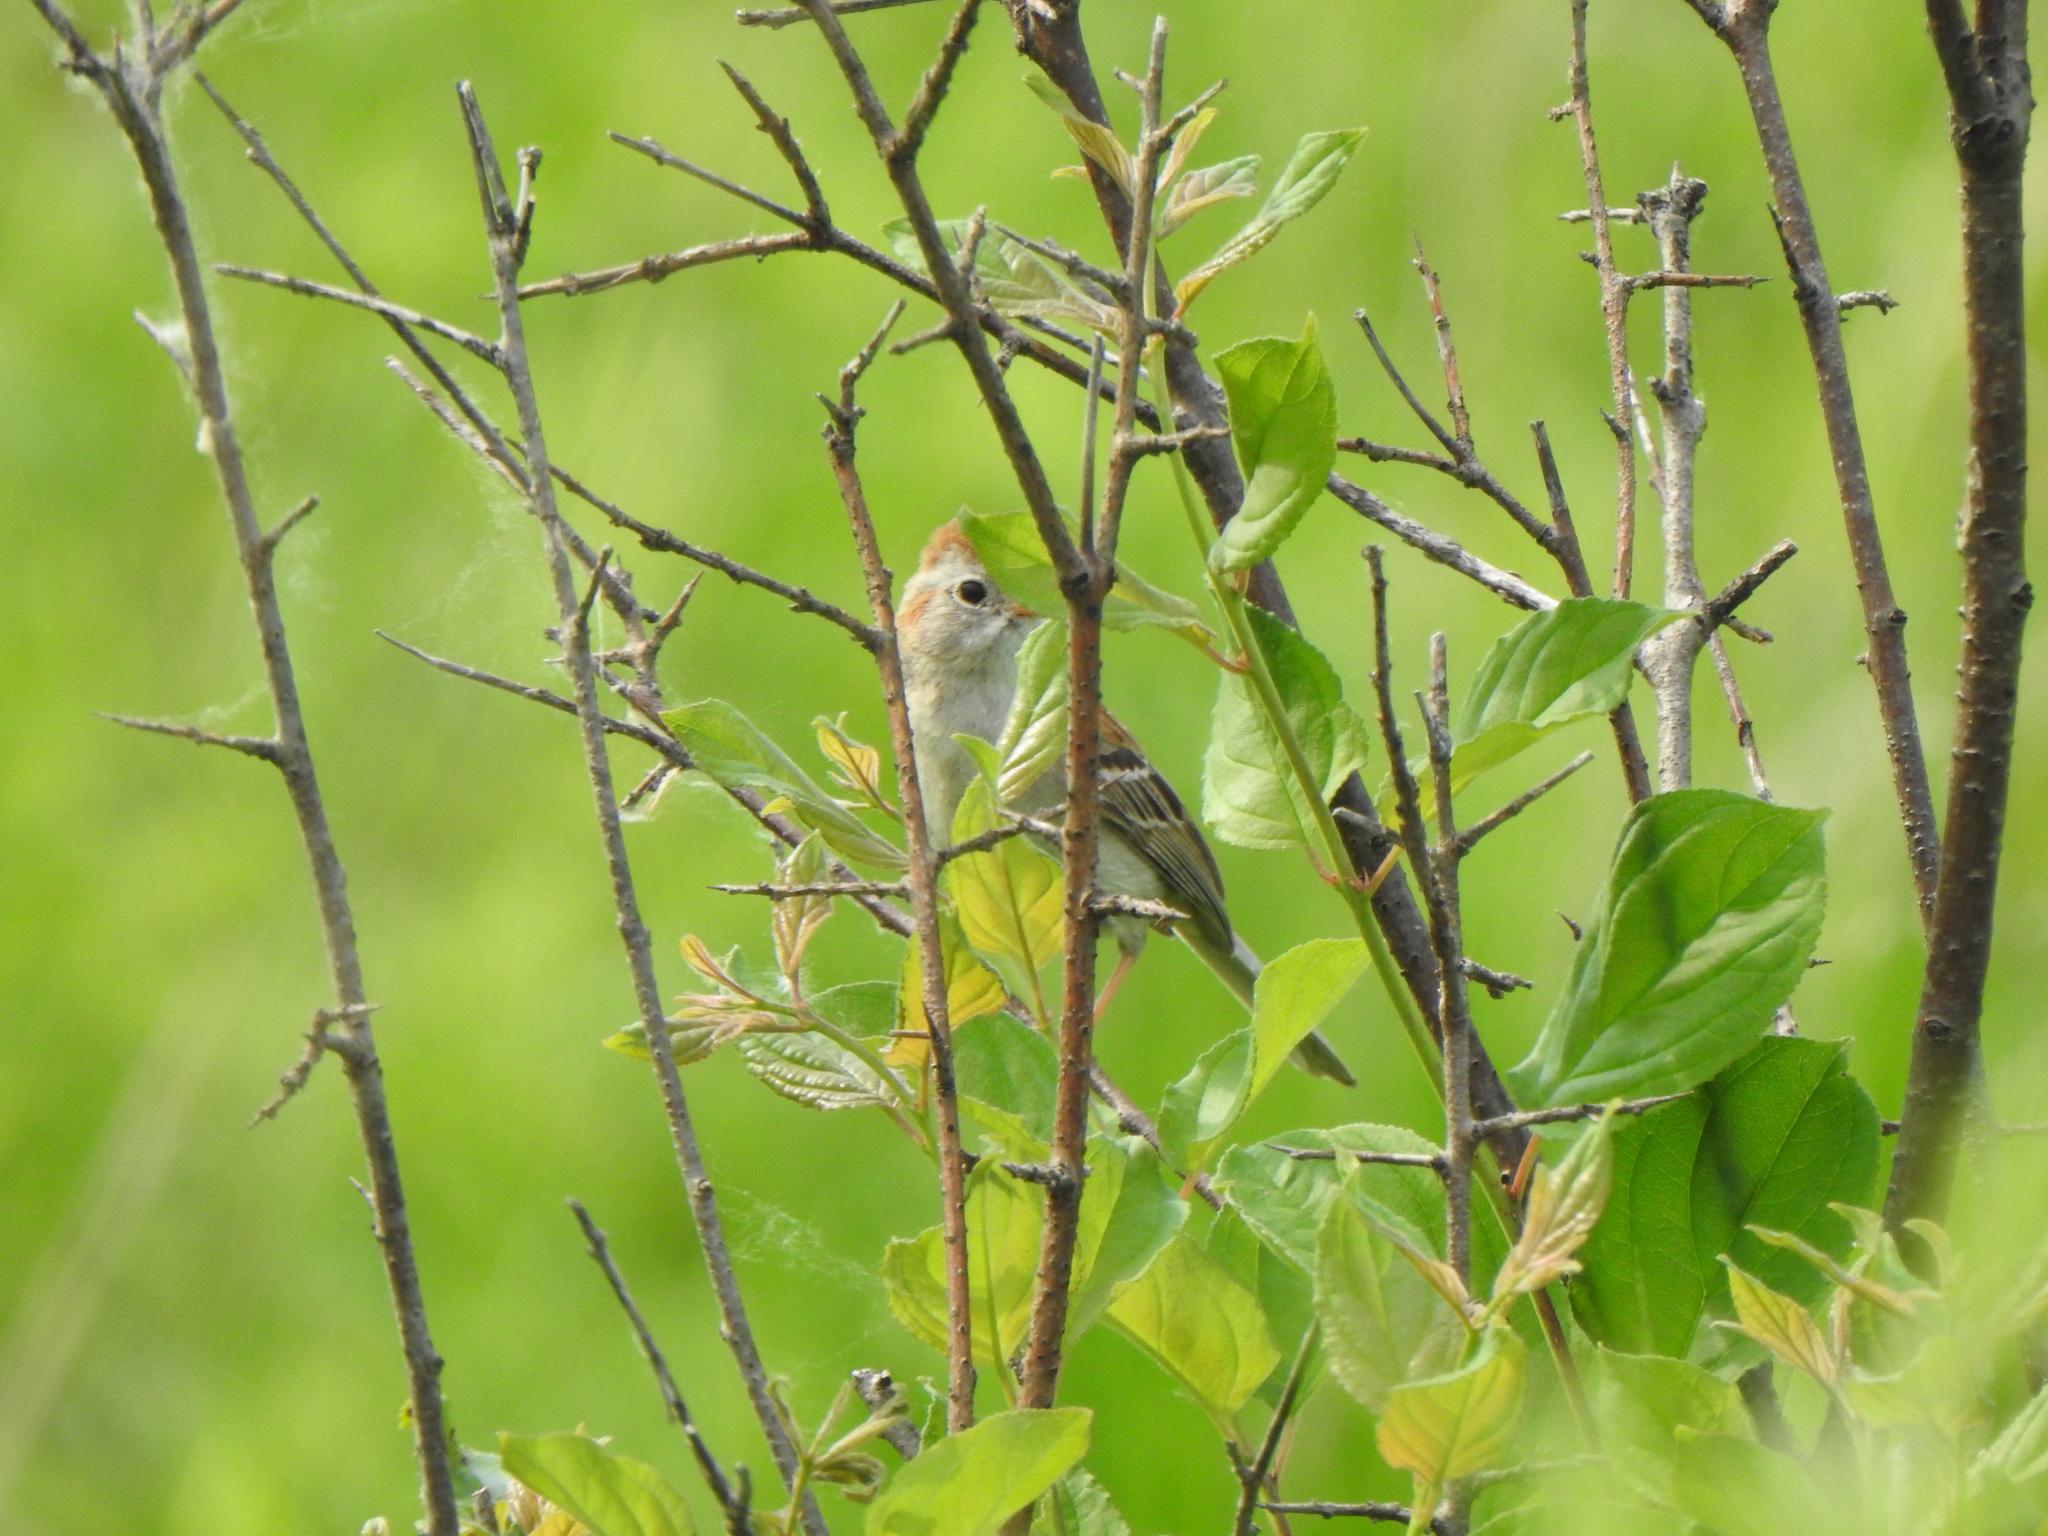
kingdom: Animalia
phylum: Chordata
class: Aves
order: Passeriformes
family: Passerellidae
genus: Spizella
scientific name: Spizella pusilla
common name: Field sparrow
